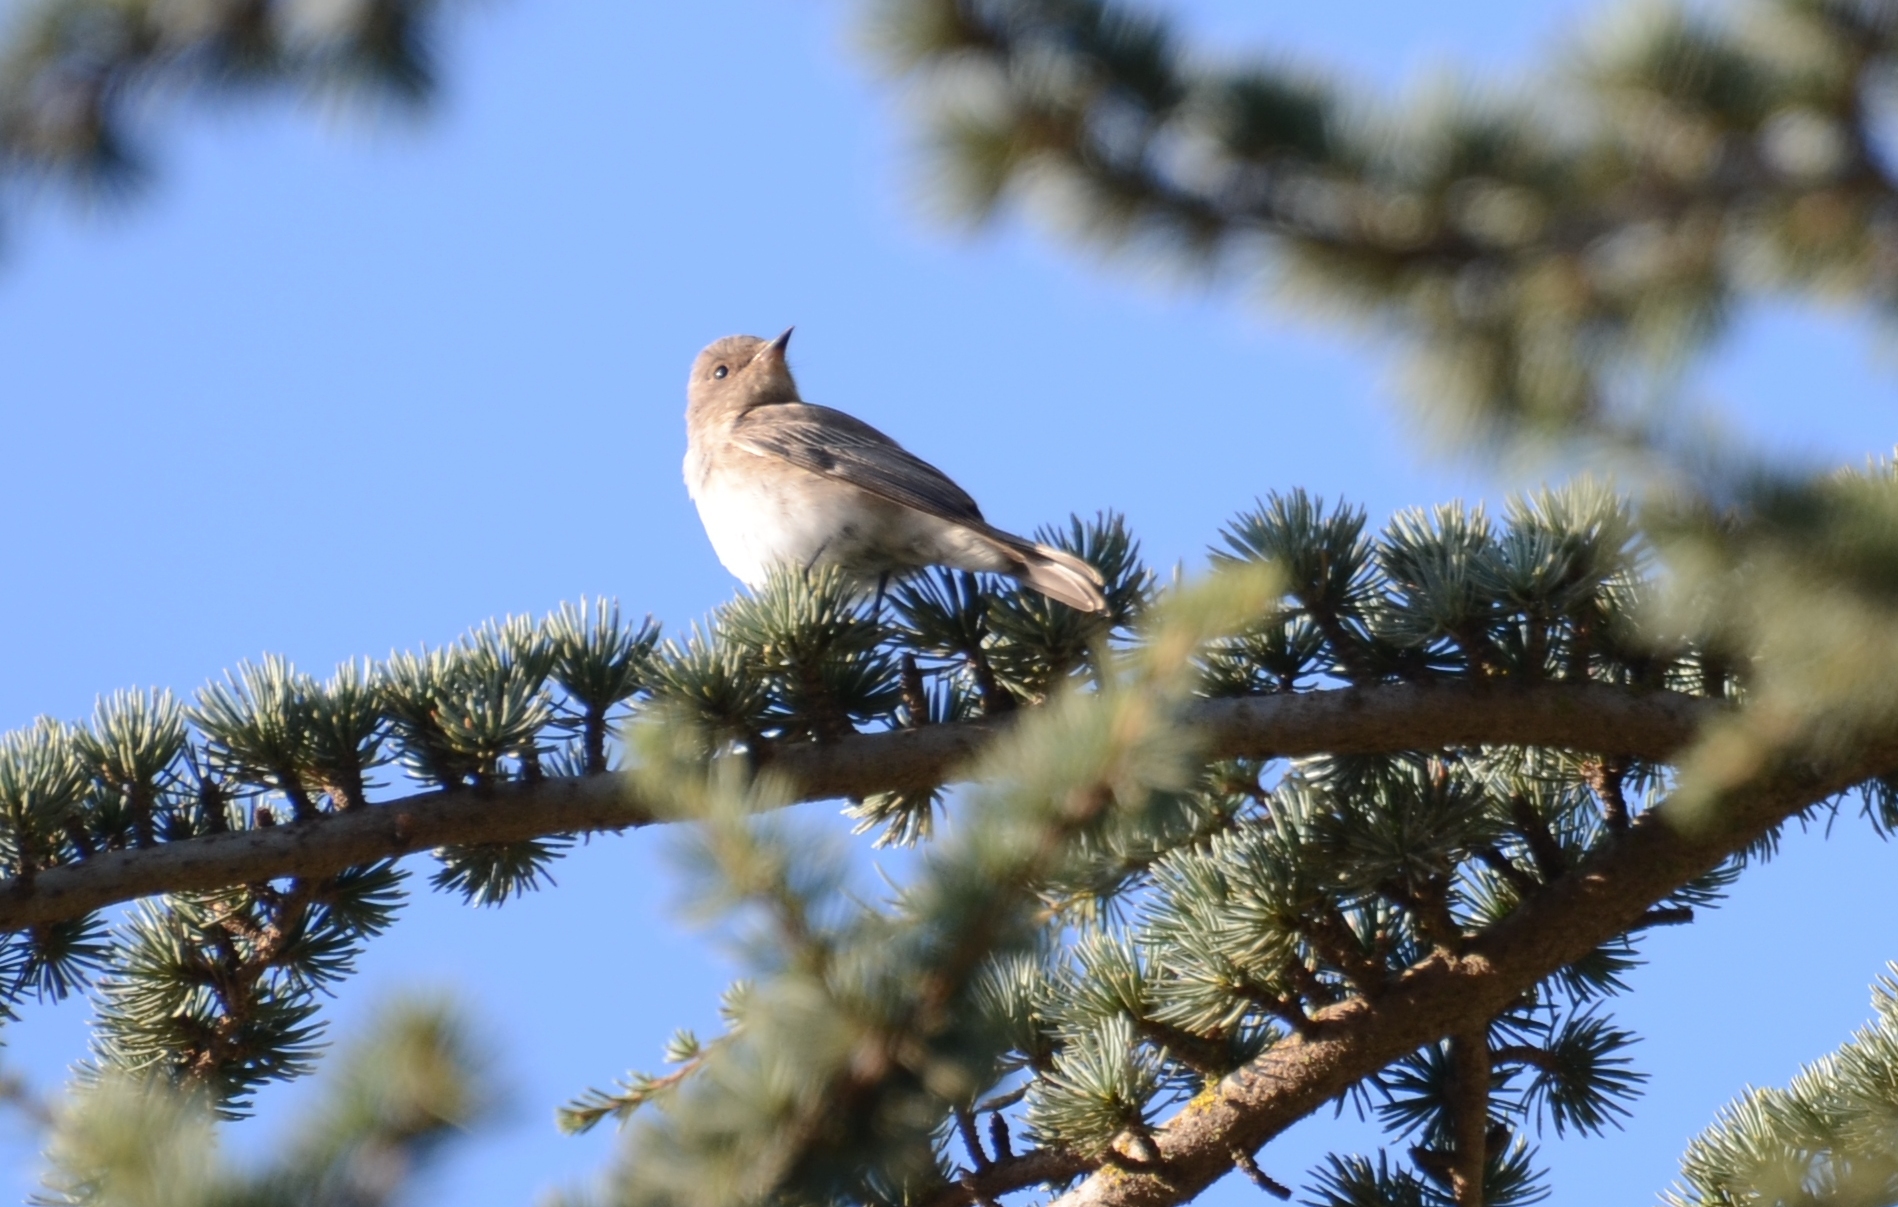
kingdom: Animalia
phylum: Chordata
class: Aves
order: Passeriformes
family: Muscicapidae
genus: Muscicapa
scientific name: Muscicapa striata
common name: Spotted flycatcher
